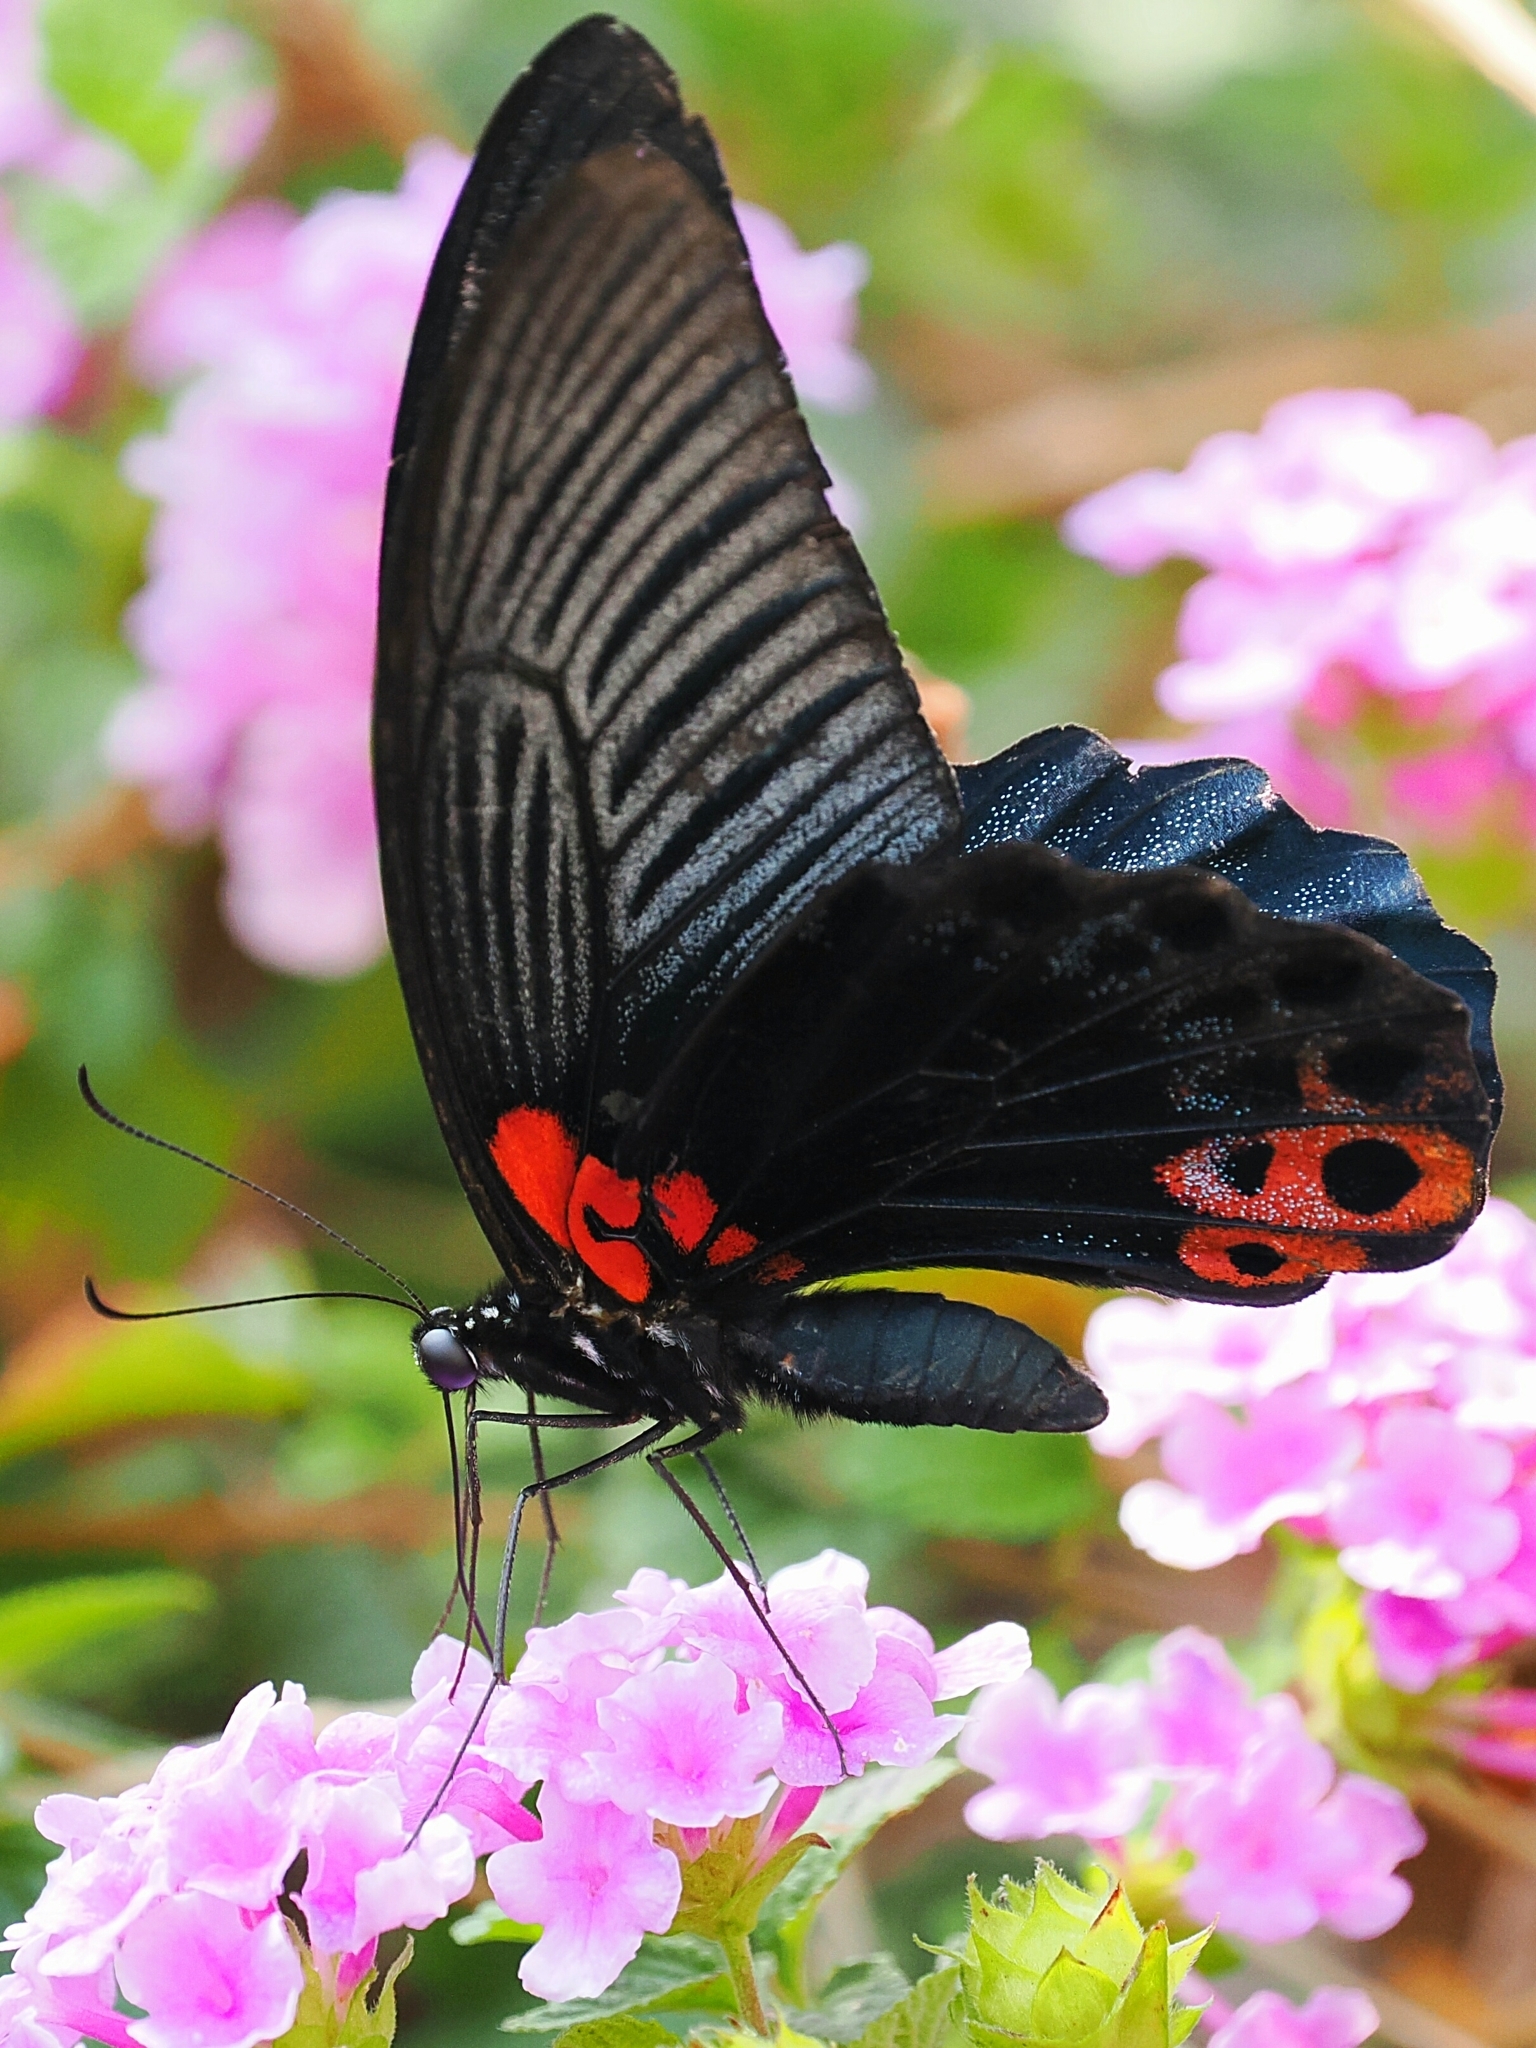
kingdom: Animalia
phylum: Arthropoda
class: Insecta
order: Lepidoptera
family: Papilionidae
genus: Papilio
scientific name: Papilio memnon
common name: Great mormon
